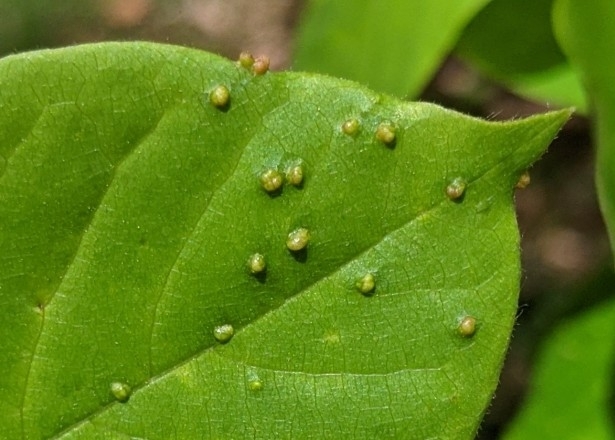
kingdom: Animalia
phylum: Arthropoda
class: Arachnida
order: Trombidiformes
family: Eriophyidae
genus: Aceria
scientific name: Aceria
